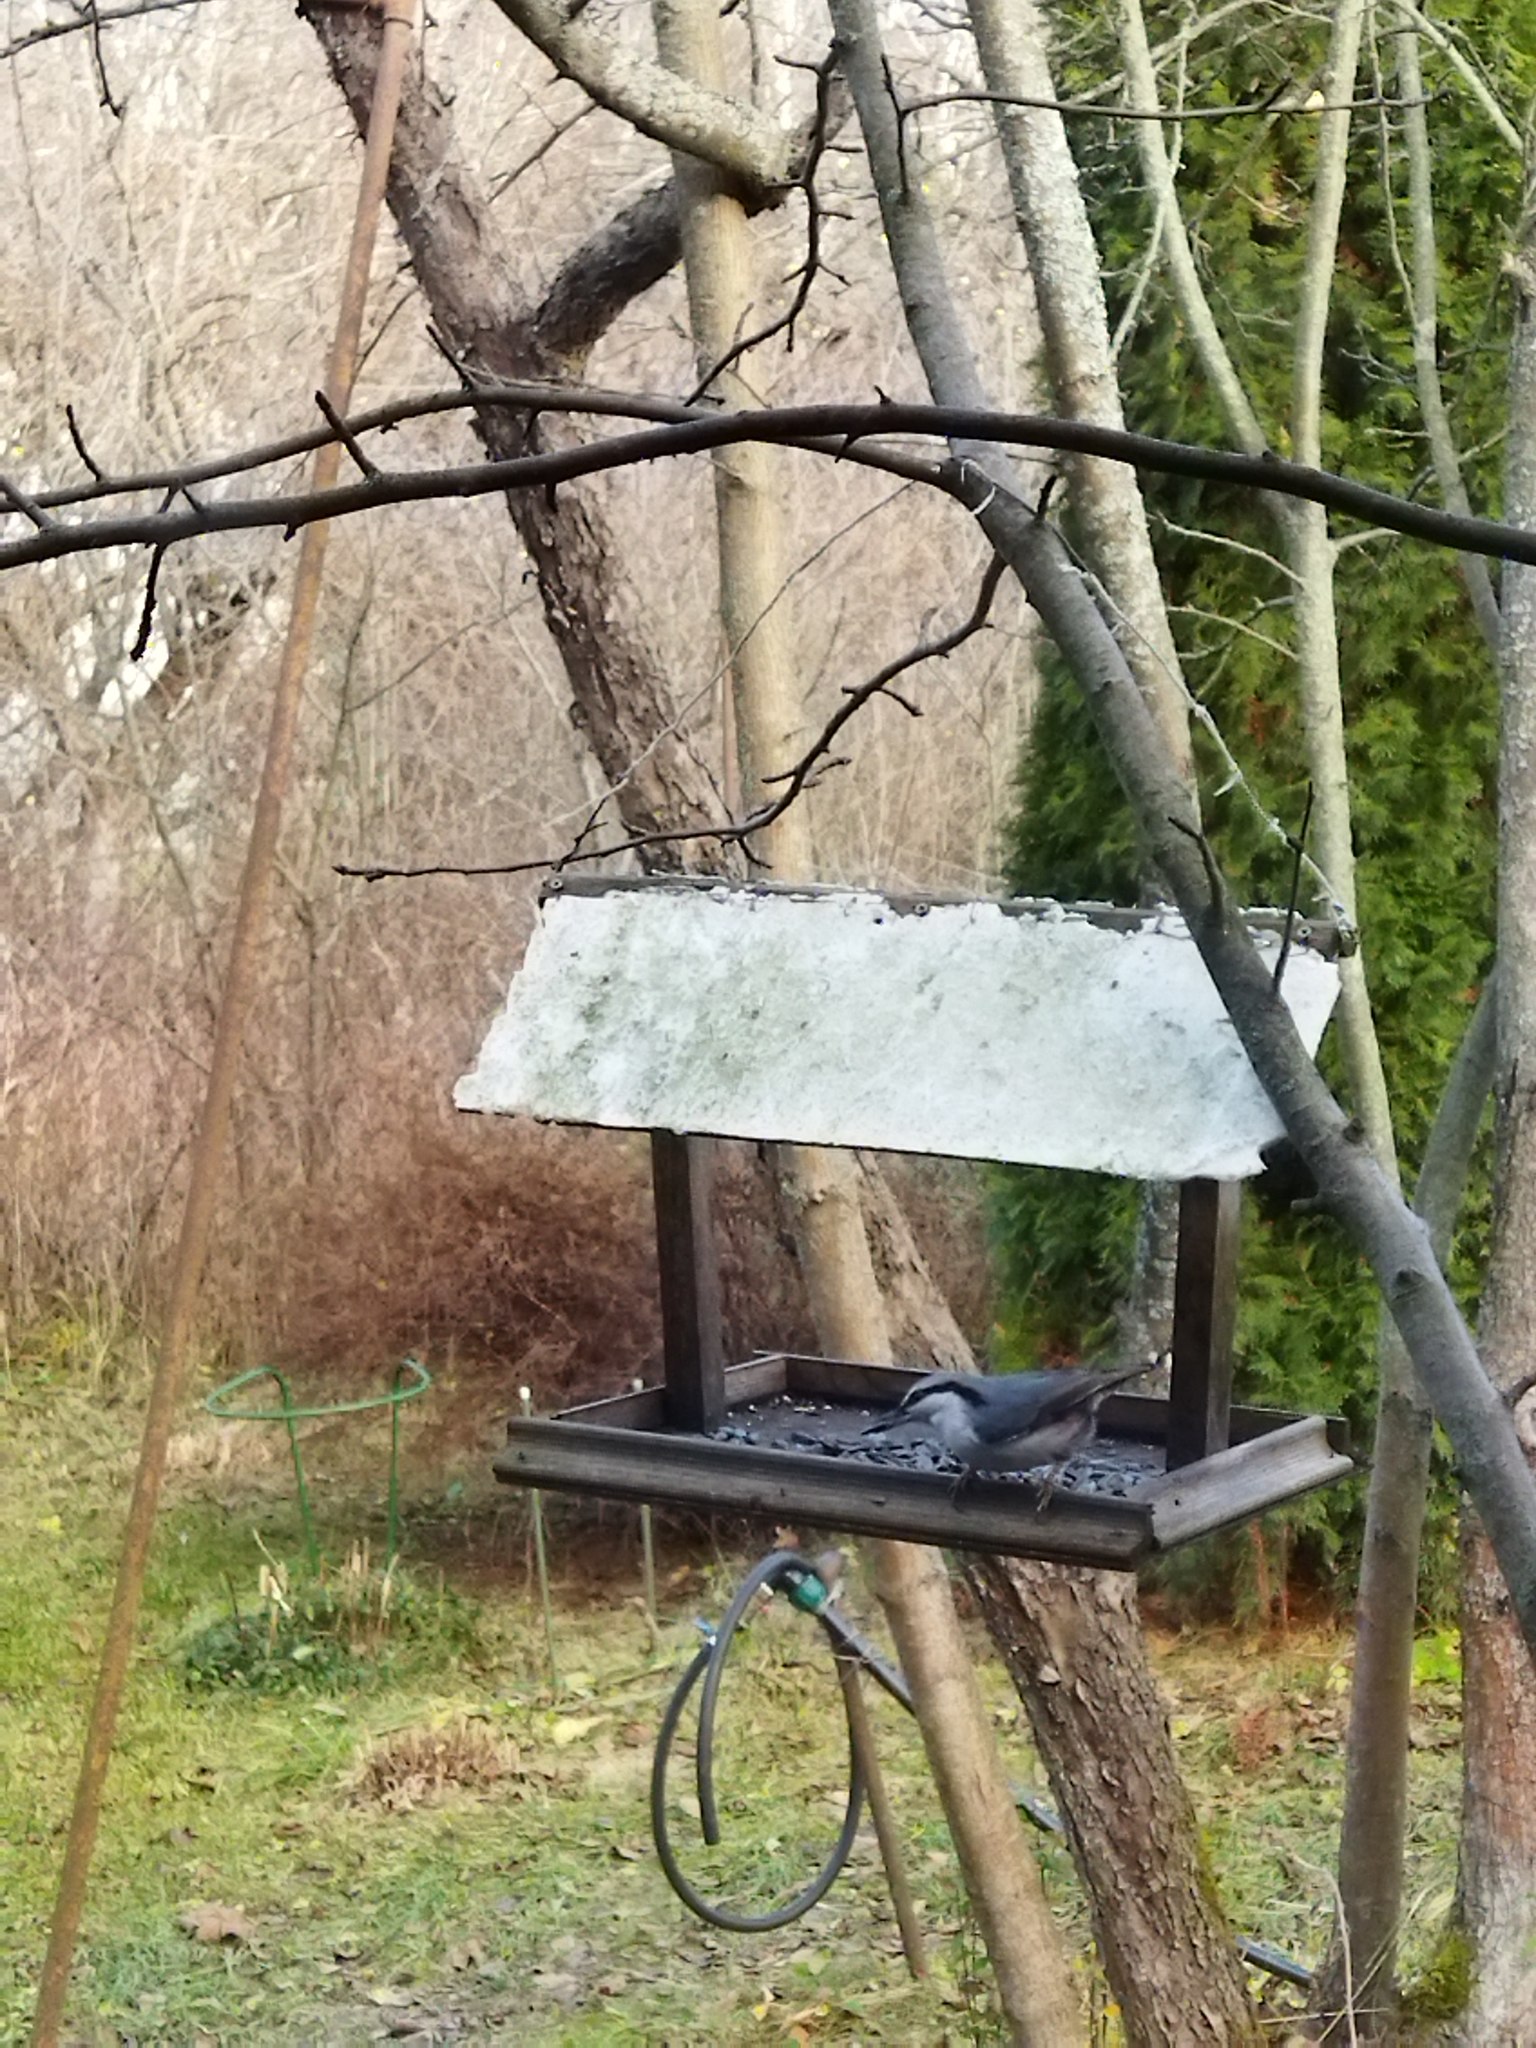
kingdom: Animalia
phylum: Chordata
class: Aves
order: Passeriformes
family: Sittidae
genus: Sitta
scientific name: Sitta europaea
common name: Eurasian nuthatch
